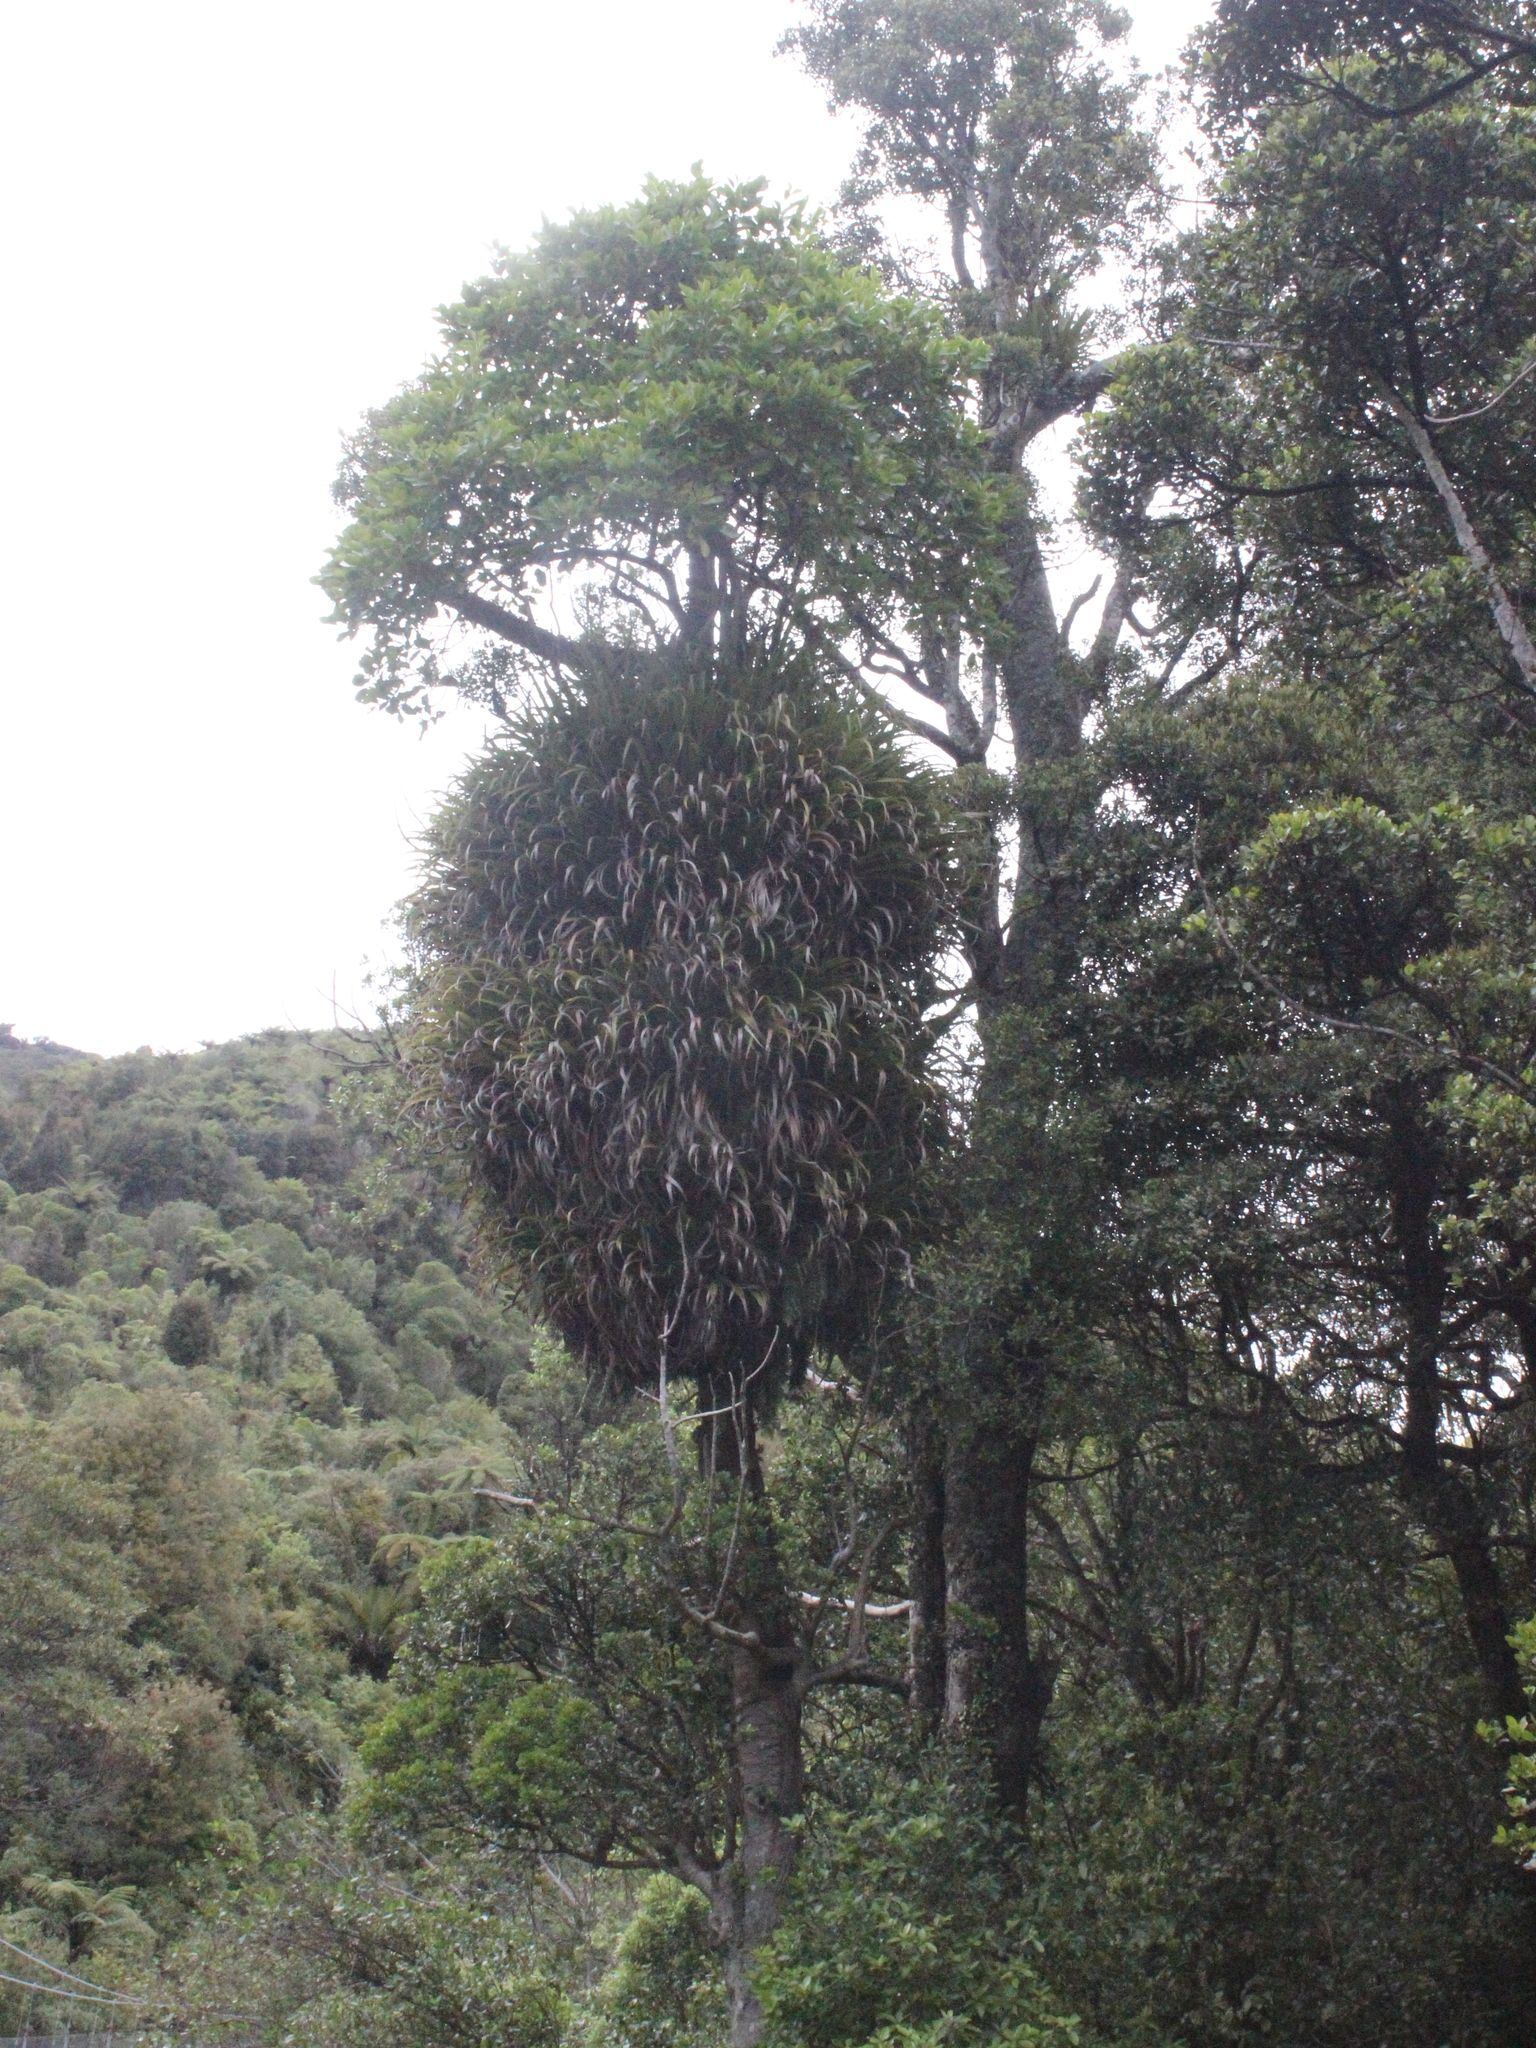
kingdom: Plantae
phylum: Tracheophyta
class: Liliopsida
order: Asparagales
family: Asteliaceae
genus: Astelia
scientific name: Astelia hastata
